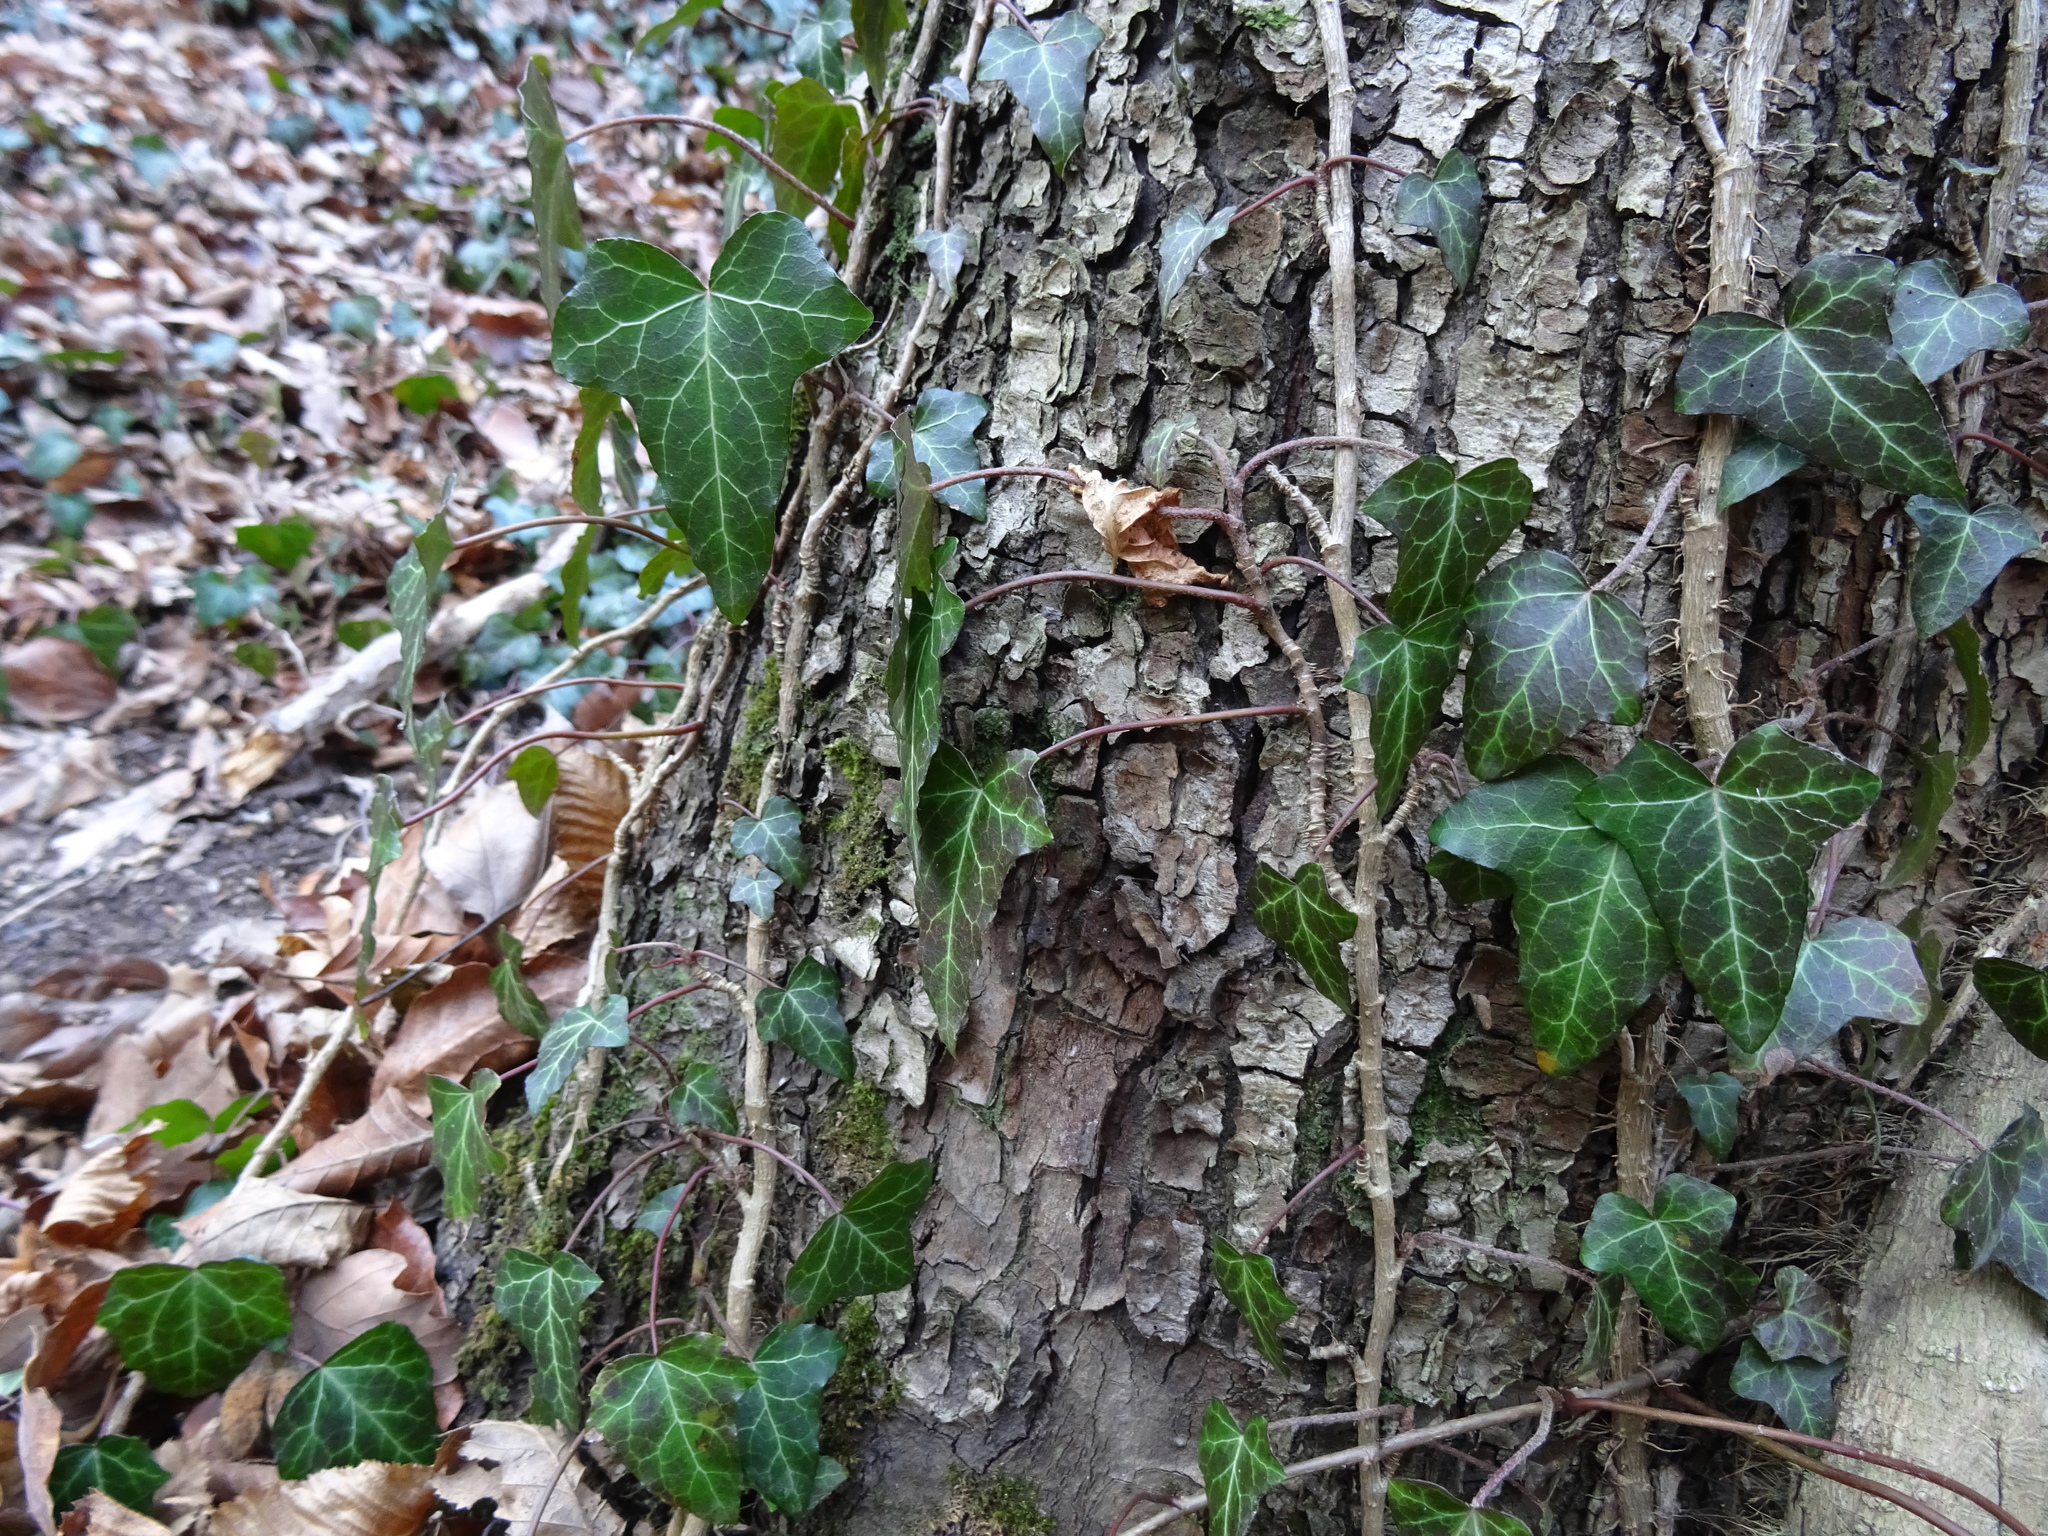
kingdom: Plantae
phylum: Tracheophyta
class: Magnoliopsida
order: Apiales
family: Araliaceae
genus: Hedera
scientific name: Hedera helix
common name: Ivy
